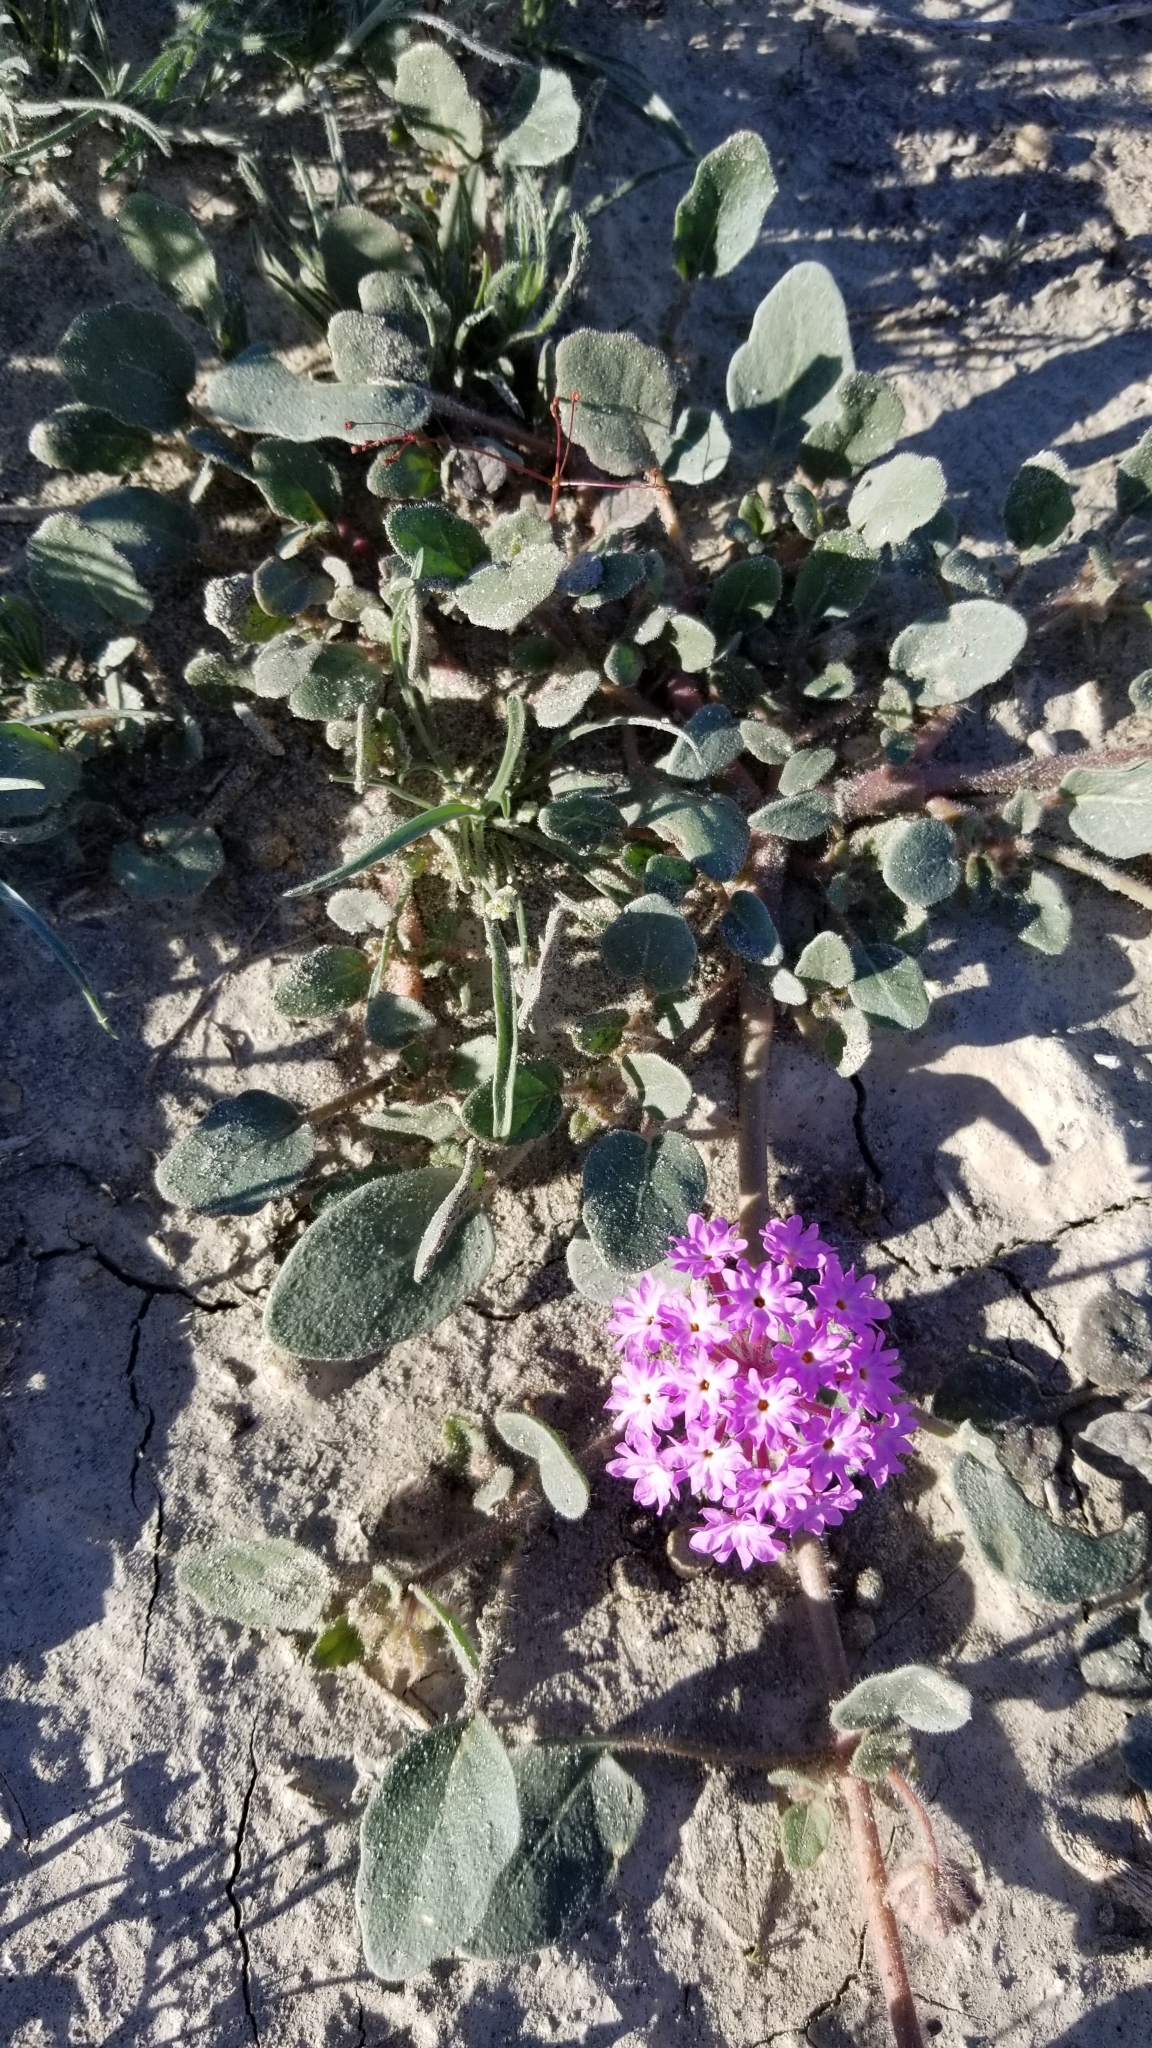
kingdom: Plantae
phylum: Tracheophyta
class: Magnoliopsida
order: Caryophyllales
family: Nyctaginaceae
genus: Abronia
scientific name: Abronia villosa
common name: Desert sand-verbena
